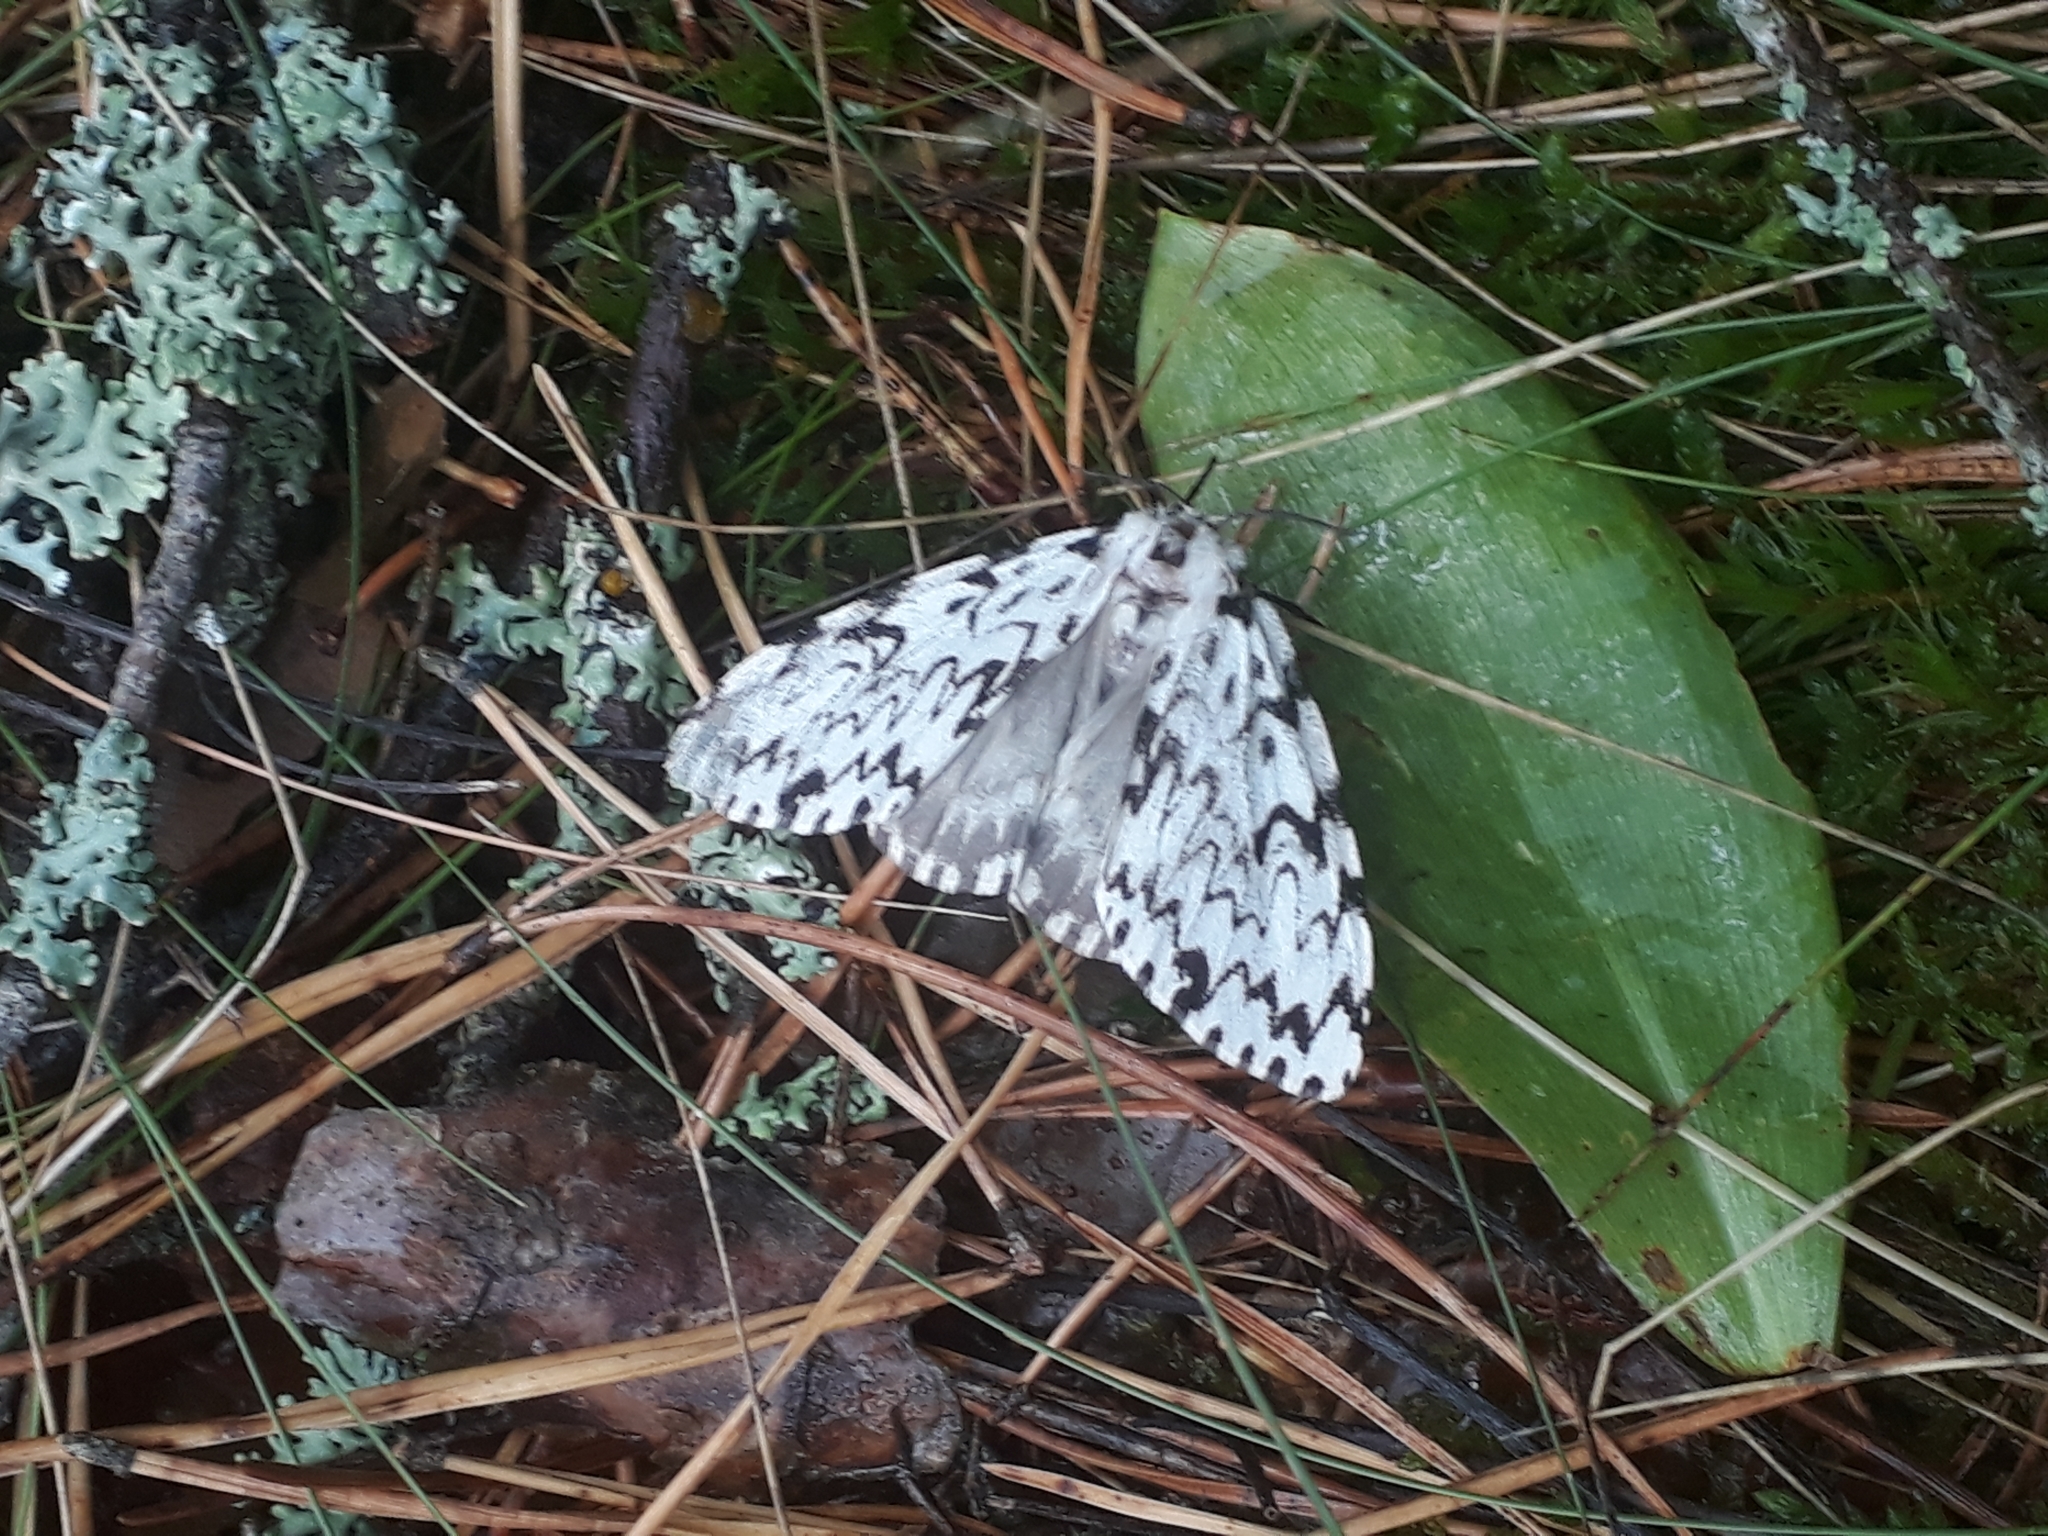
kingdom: Animalia
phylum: Arthropoda
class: Insecta
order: Lepidoptera
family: Erebidae
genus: Lymantria
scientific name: Lymantria monacha
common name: Black arches
